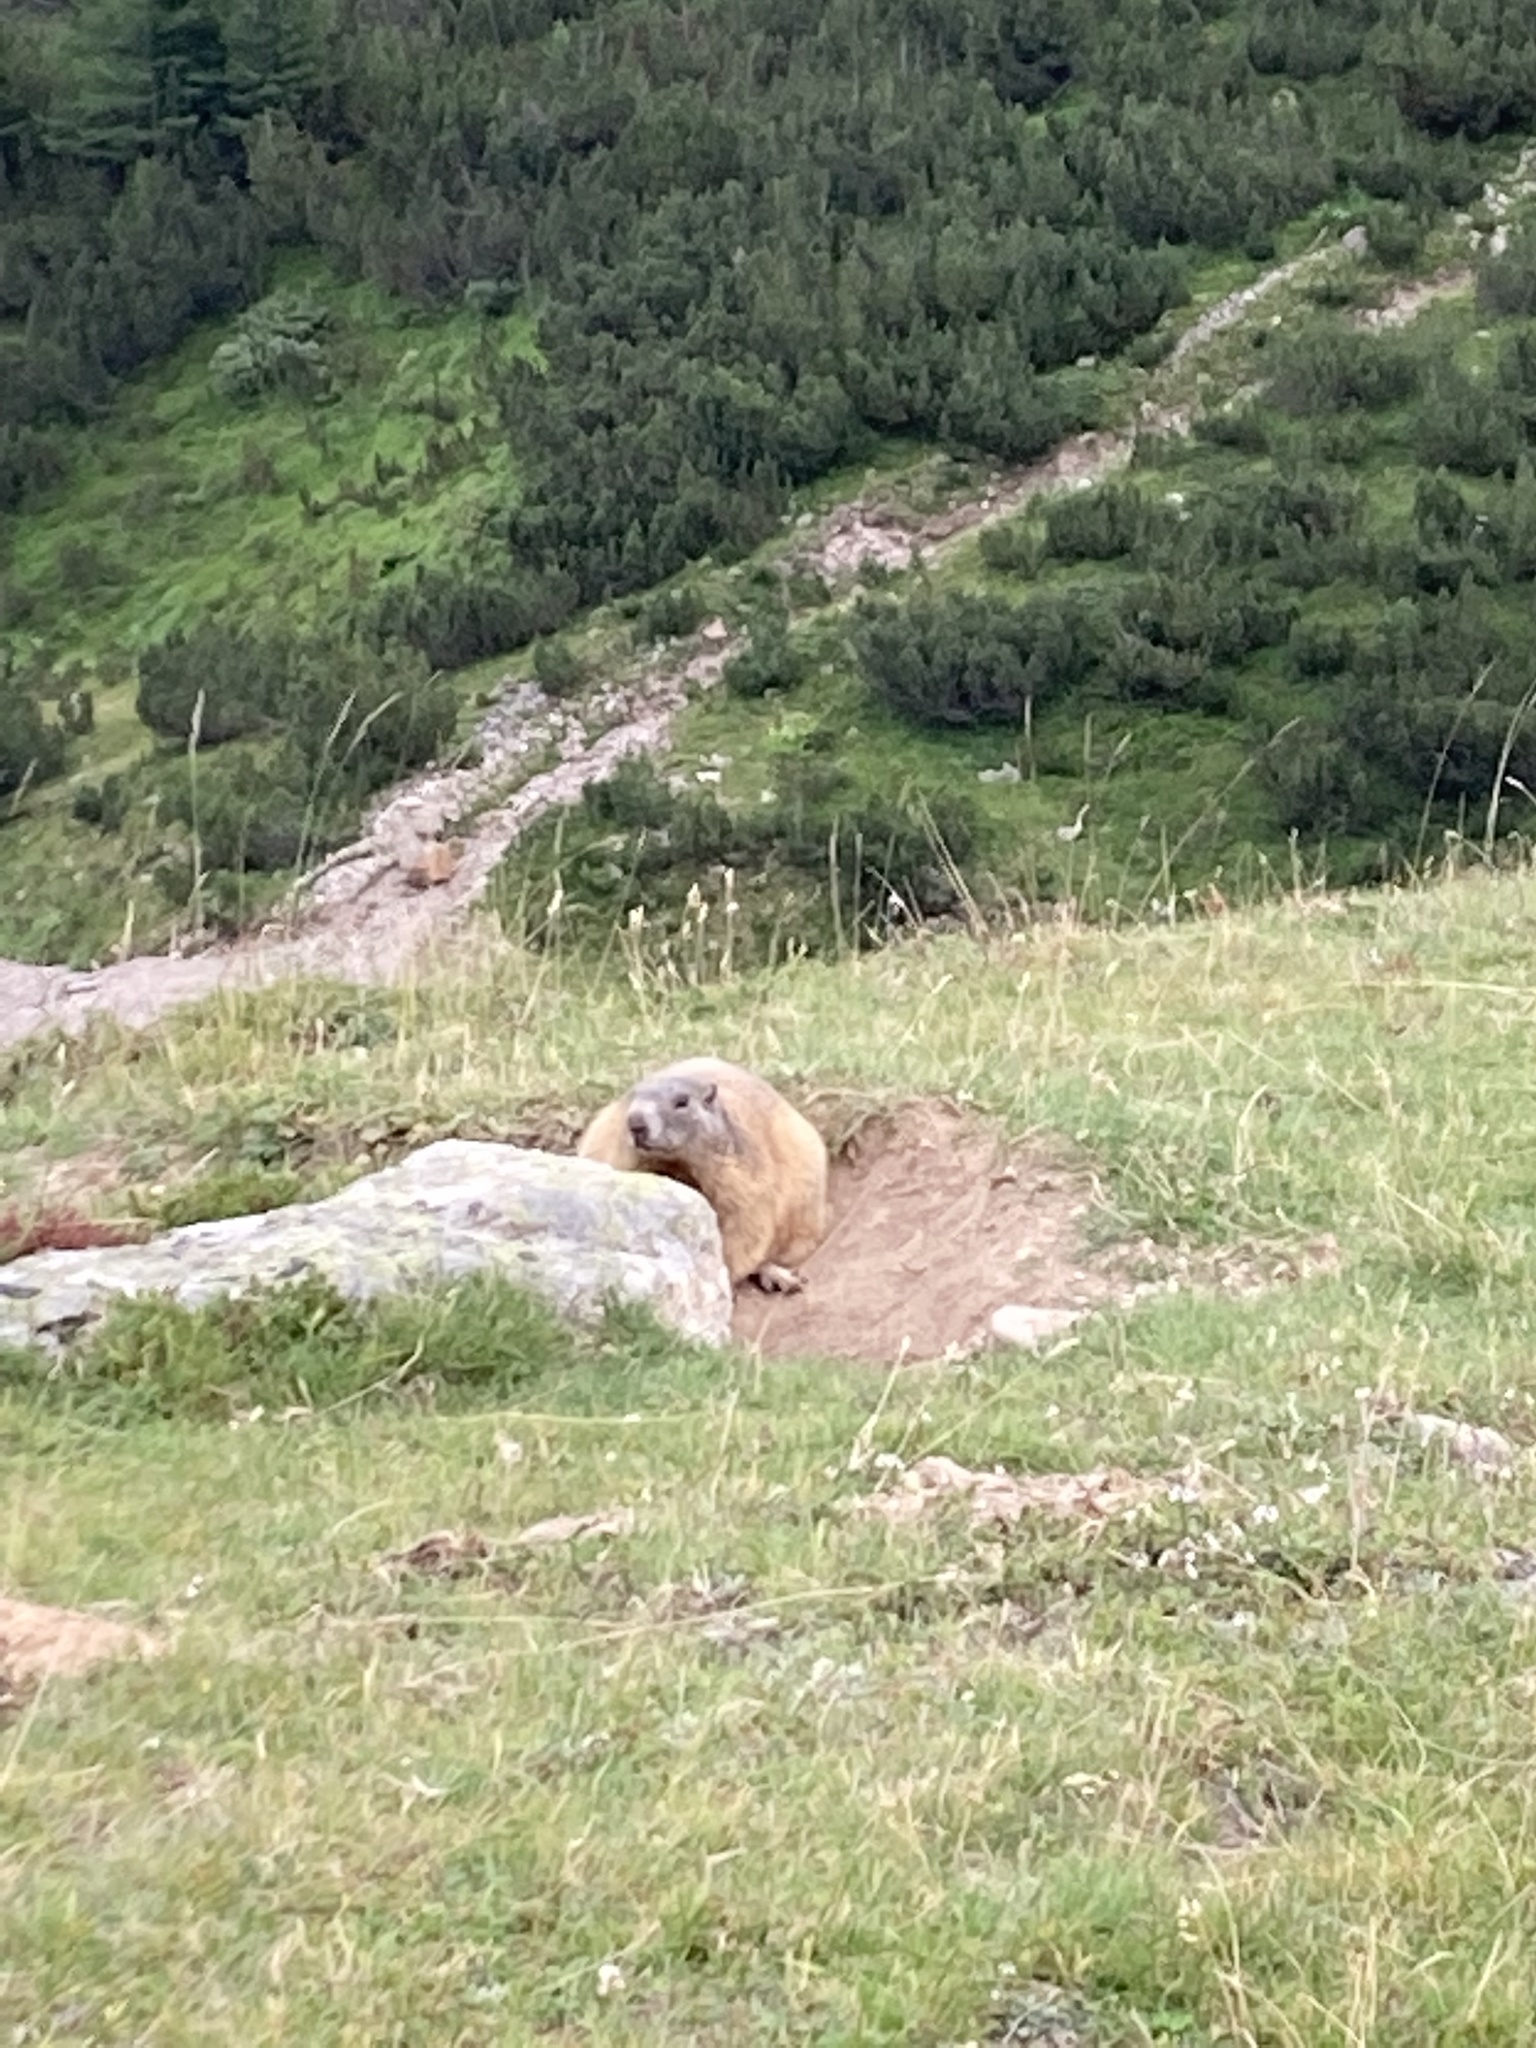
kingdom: Animalia
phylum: Chordata
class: Mammalia
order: Rodentia
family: Sciuridae
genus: Marmota
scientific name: Marmota marmota
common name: Alpine marmot
